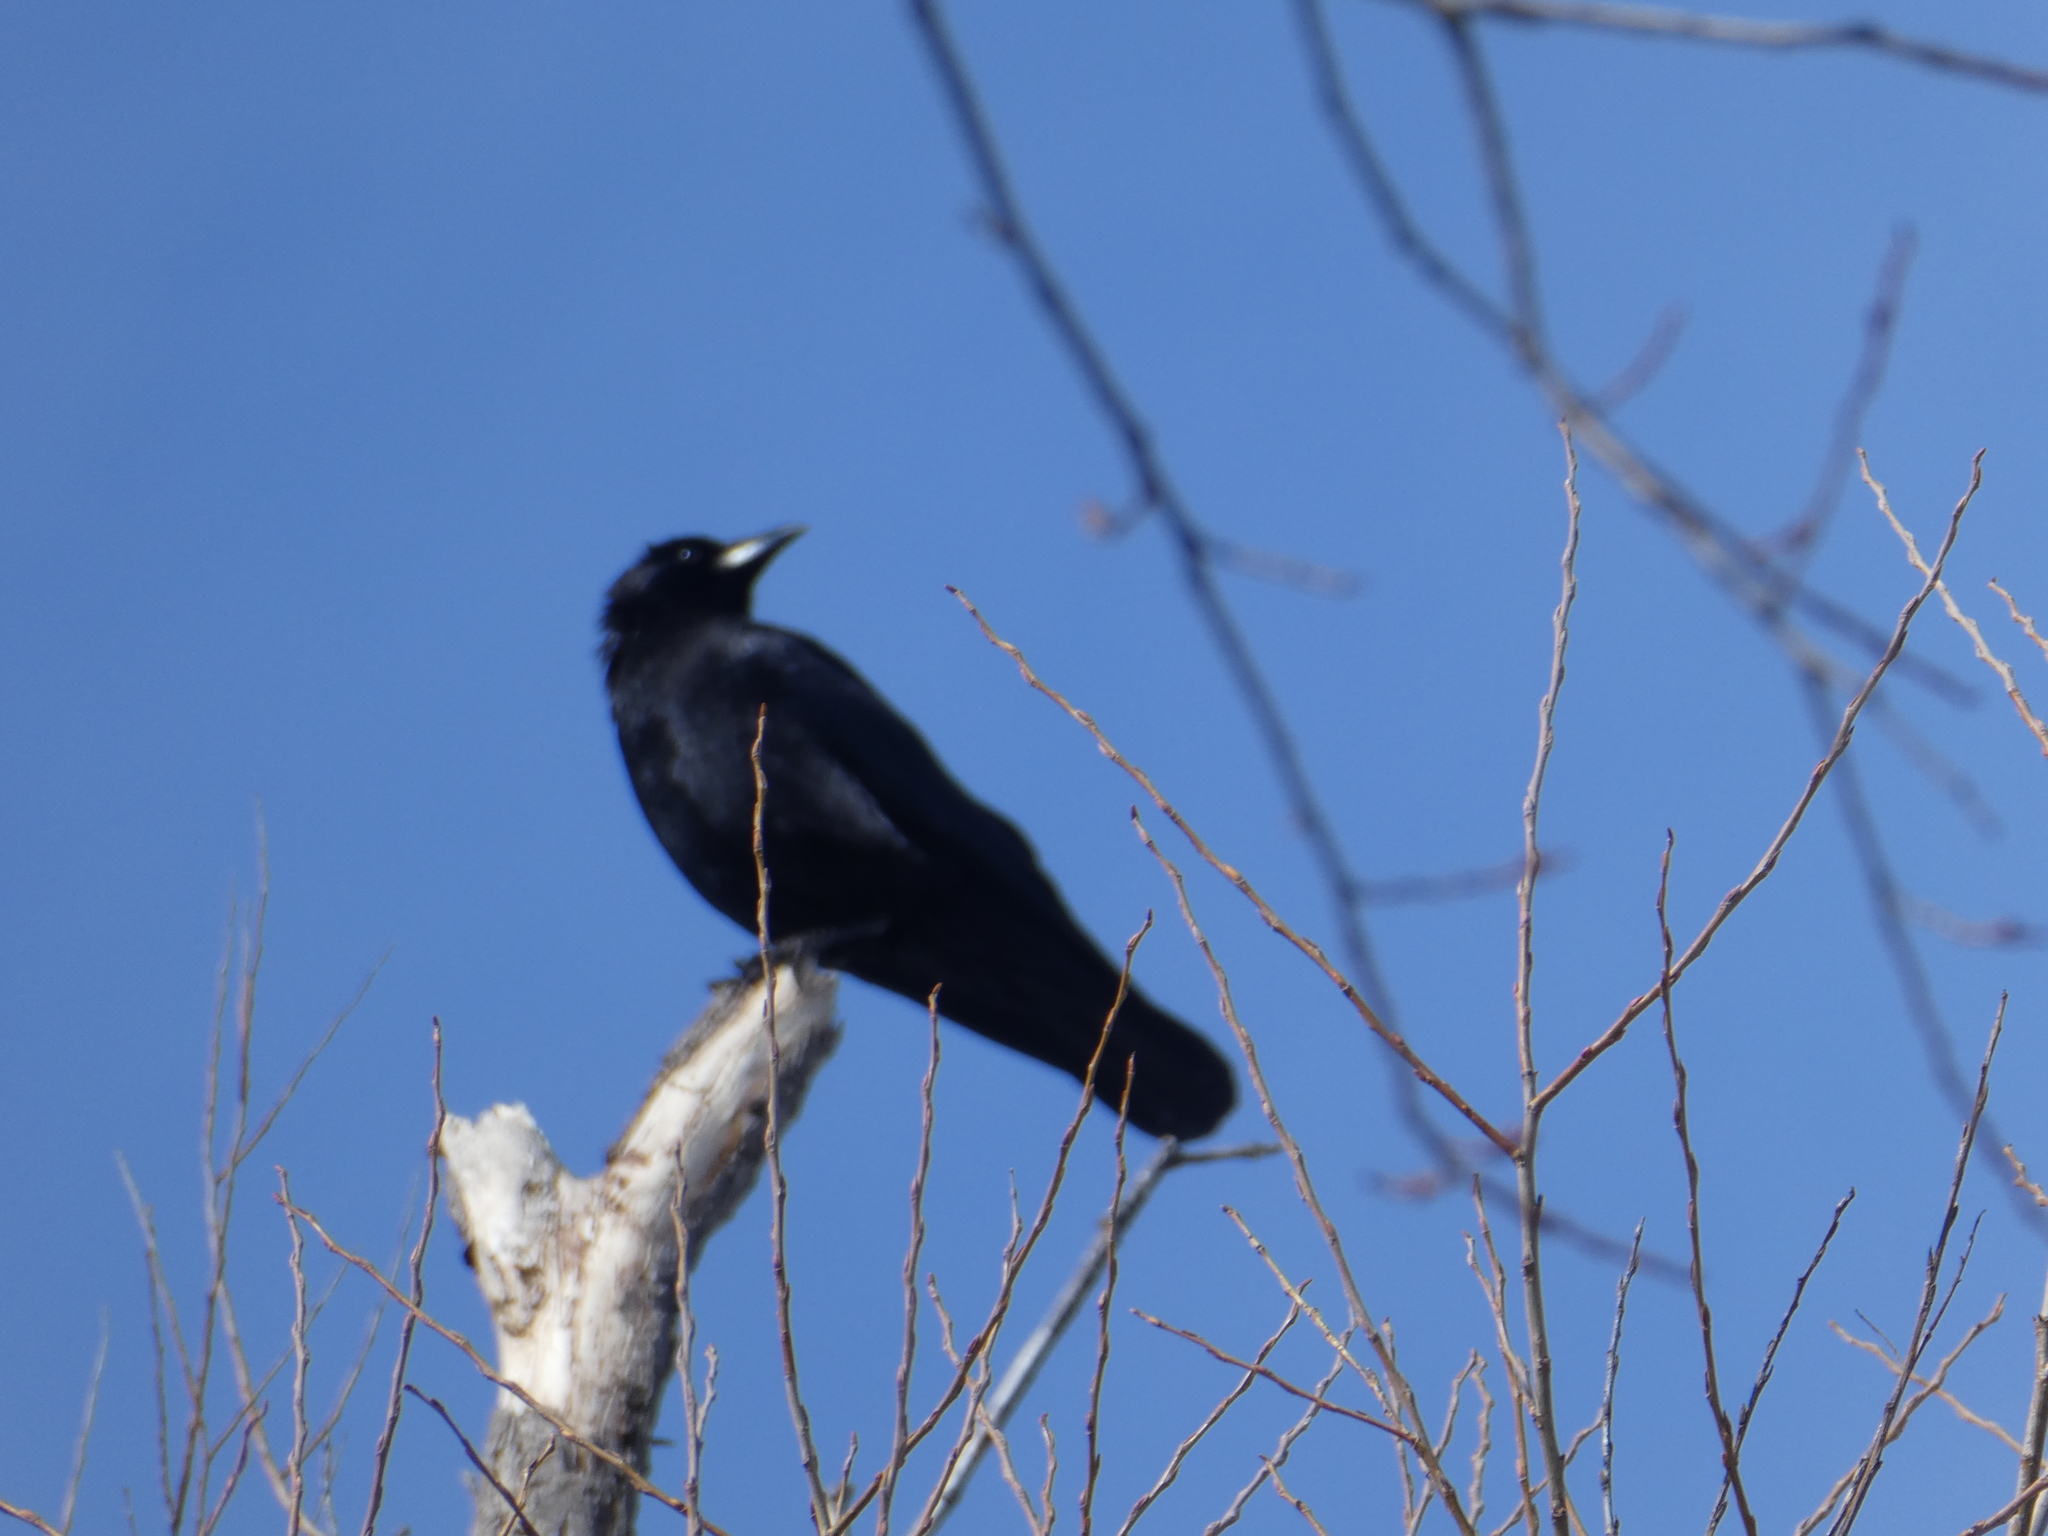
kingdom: Animalia
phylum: Chordata
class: Aves
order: Passeriformes
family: Corvidae
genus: Corvus
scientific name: Corvus brachyrhynchos
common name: American crow
